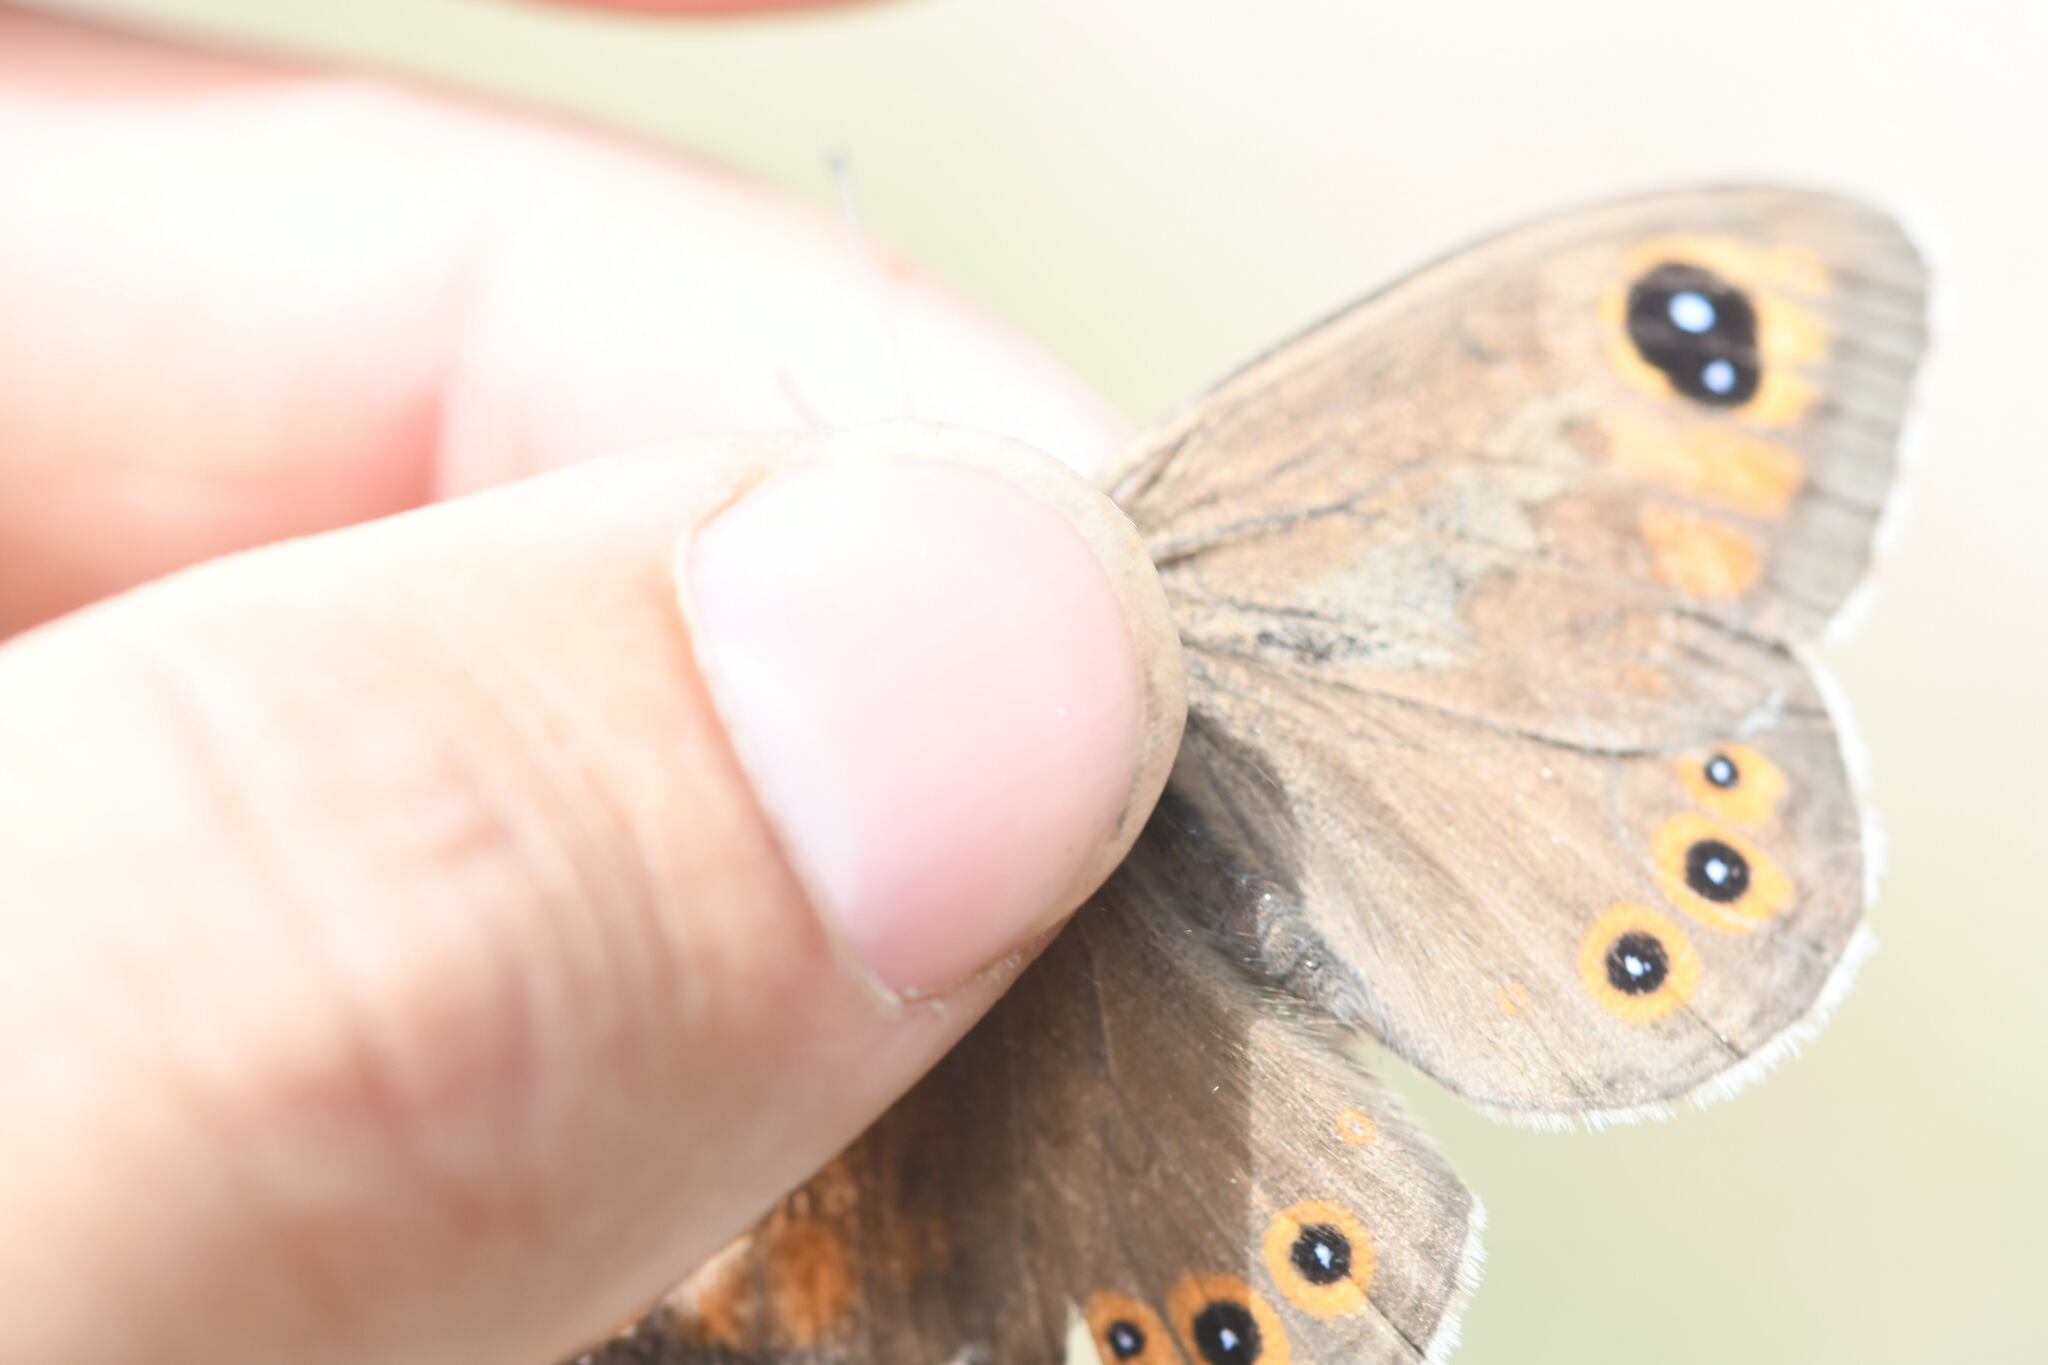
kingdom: Animalia
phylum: Arthropoda
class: Insecta
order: Lepidoptera
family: Nymphalidae
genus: Pararge
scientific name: Pararge Lasiommata maera
